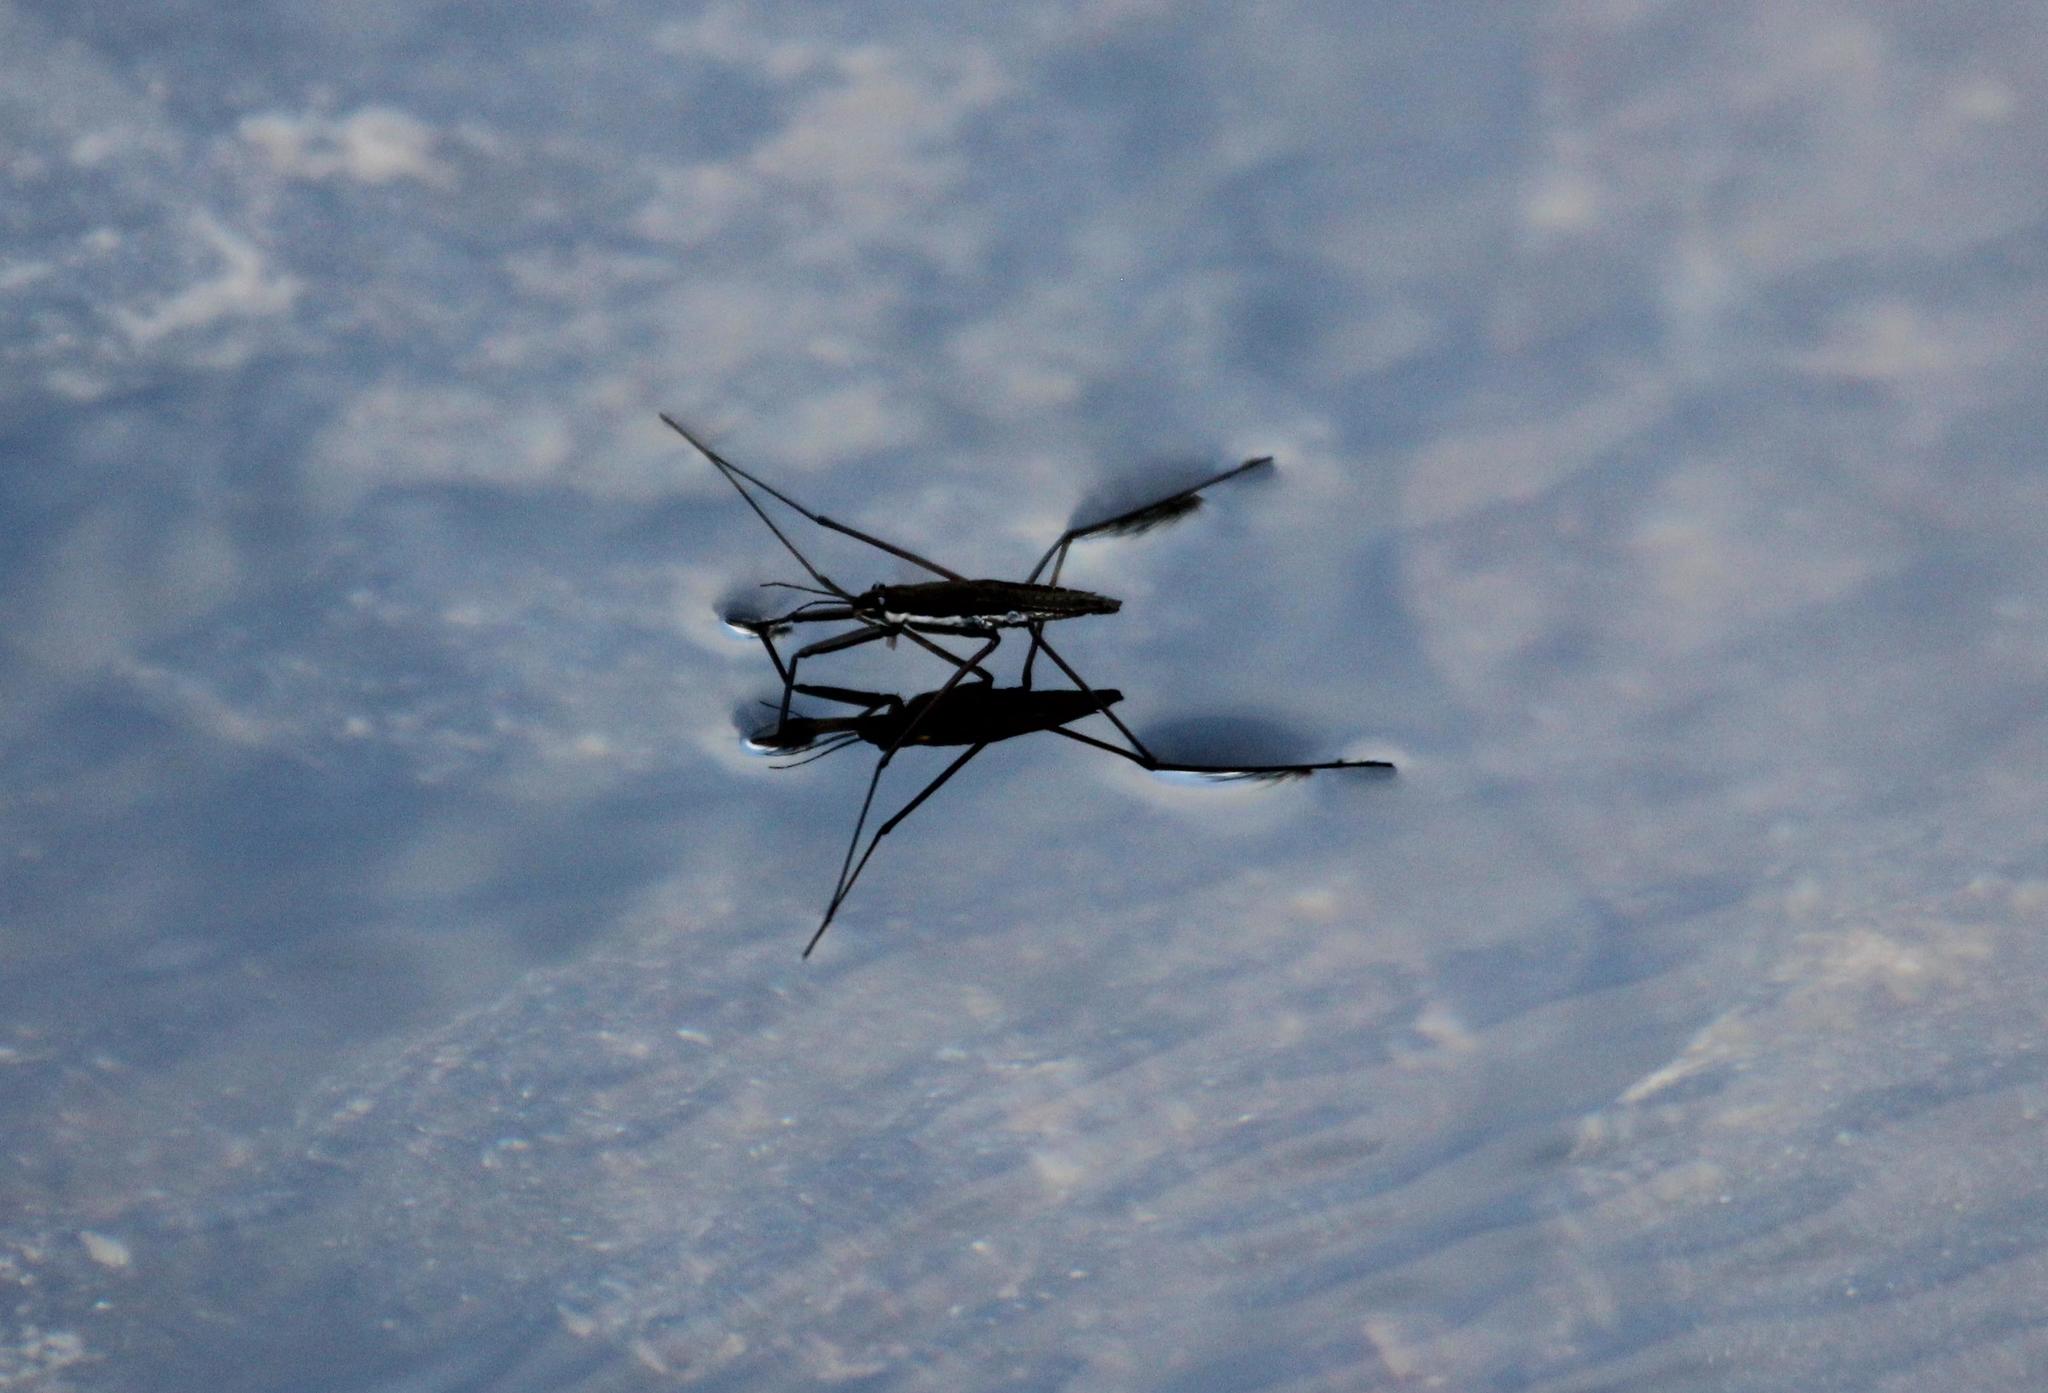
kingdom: Animalia
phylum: Arthropoda
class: Insecta
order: Hemiptera
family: Gerridae
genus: Aquarius
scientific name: Aquarius
